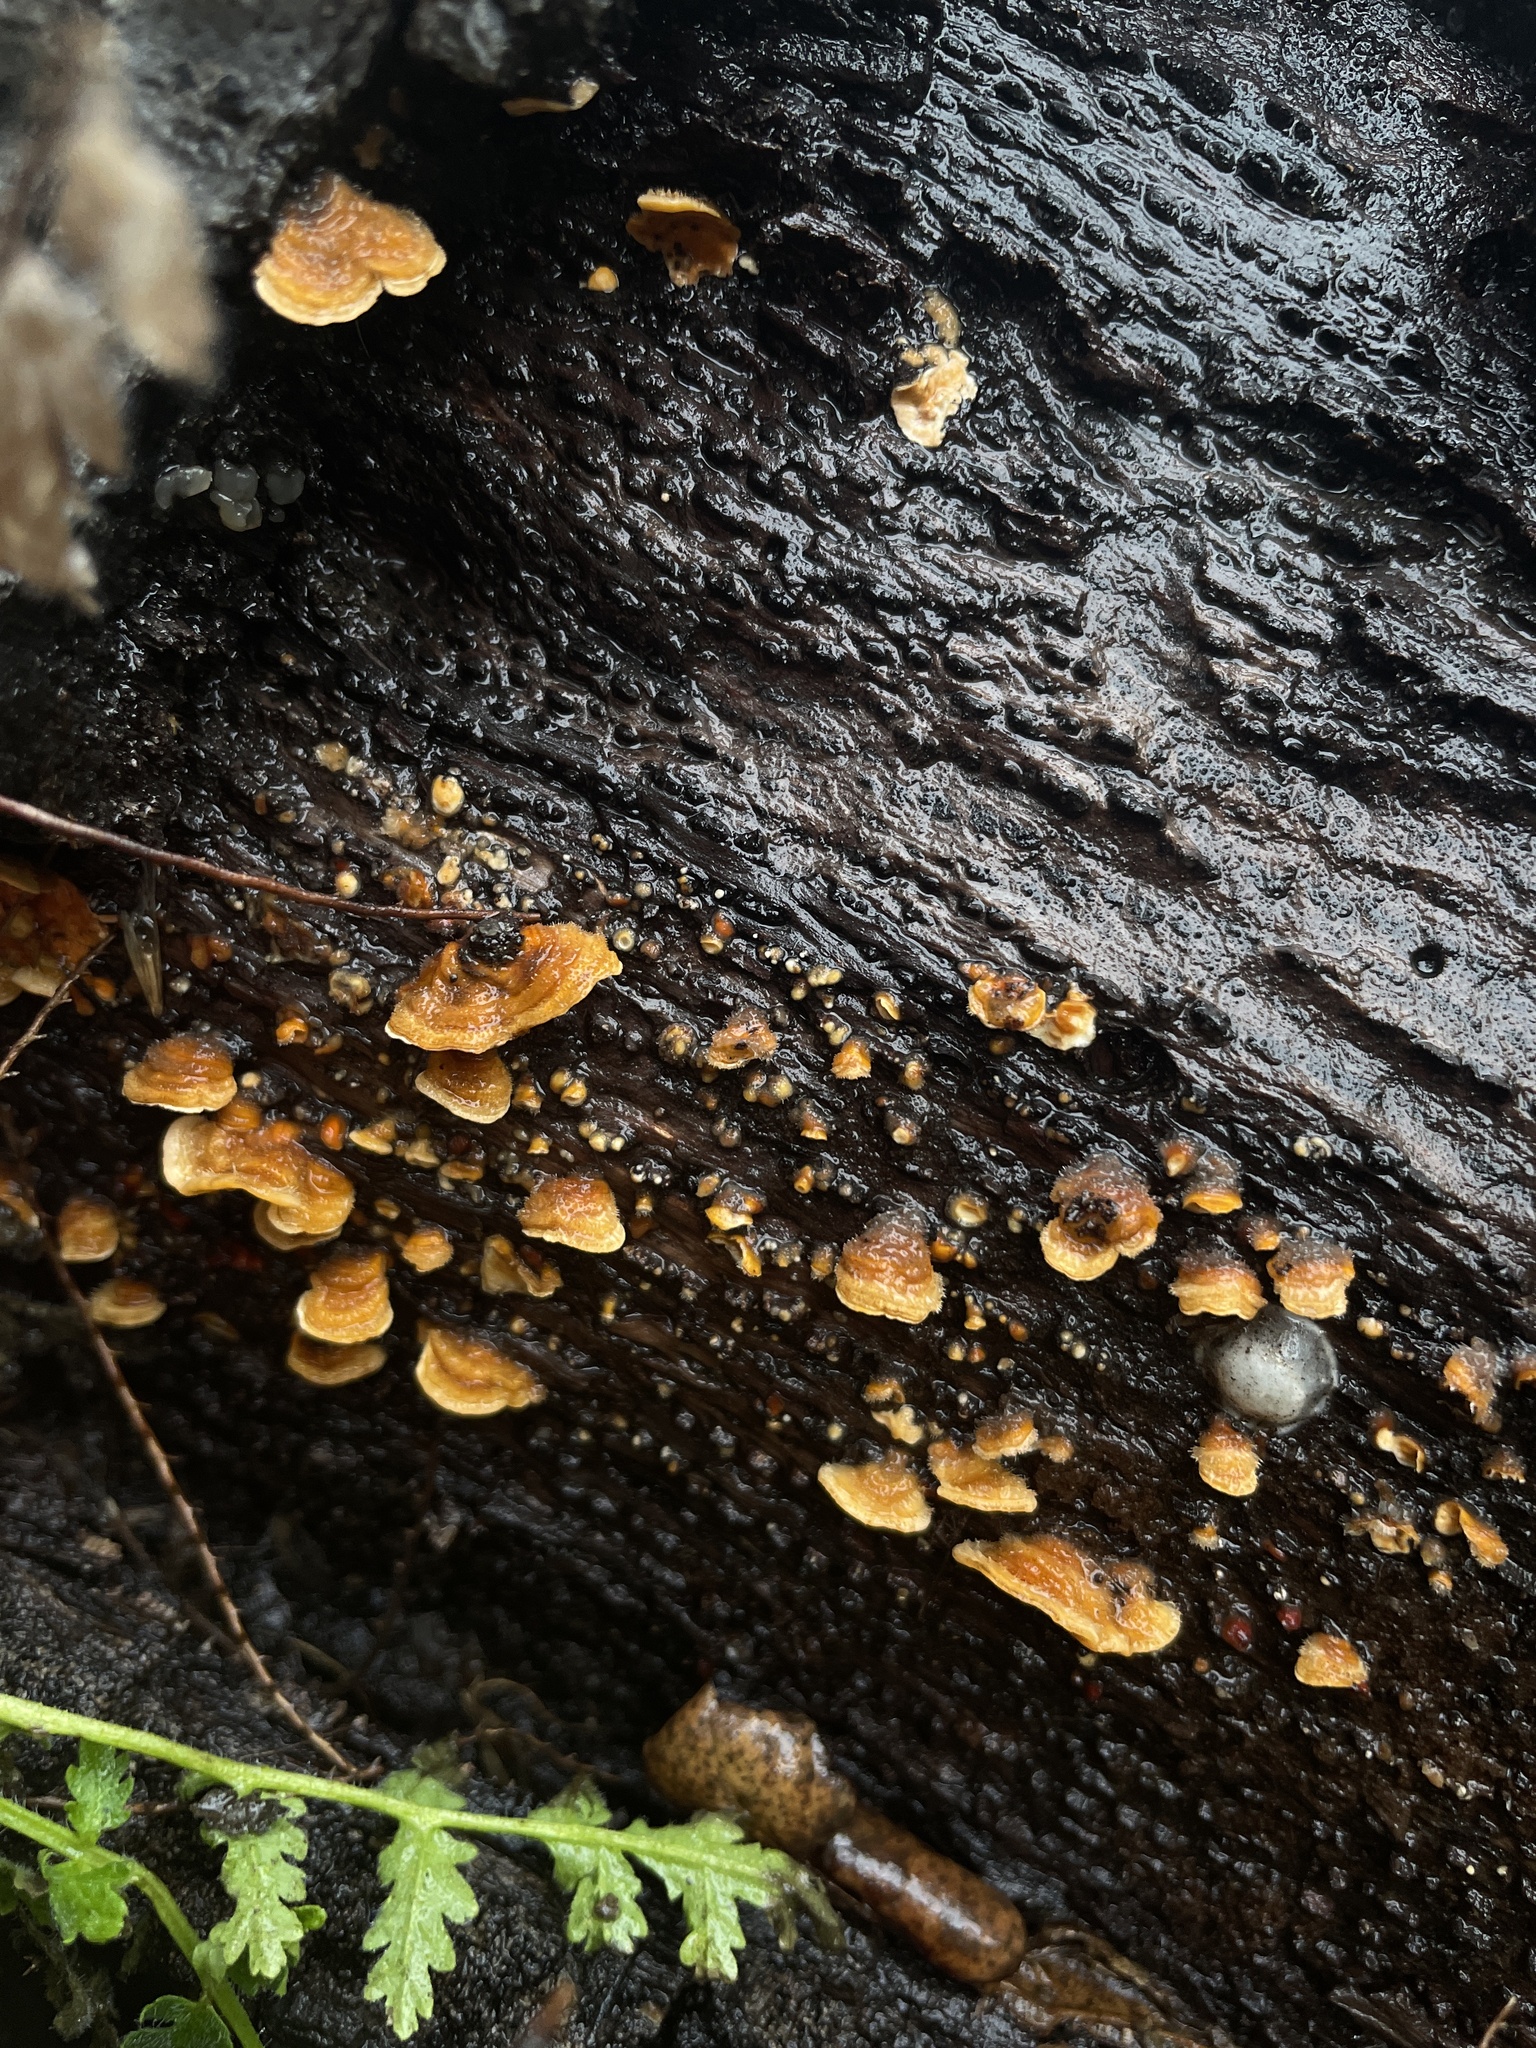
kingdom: Fungi
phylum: Basidiomycota
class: Agaricomycetes
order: Russulales
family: Stereaceae
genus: Stereum
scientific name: Stereum hirsutum
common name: Hairy curtain crust
